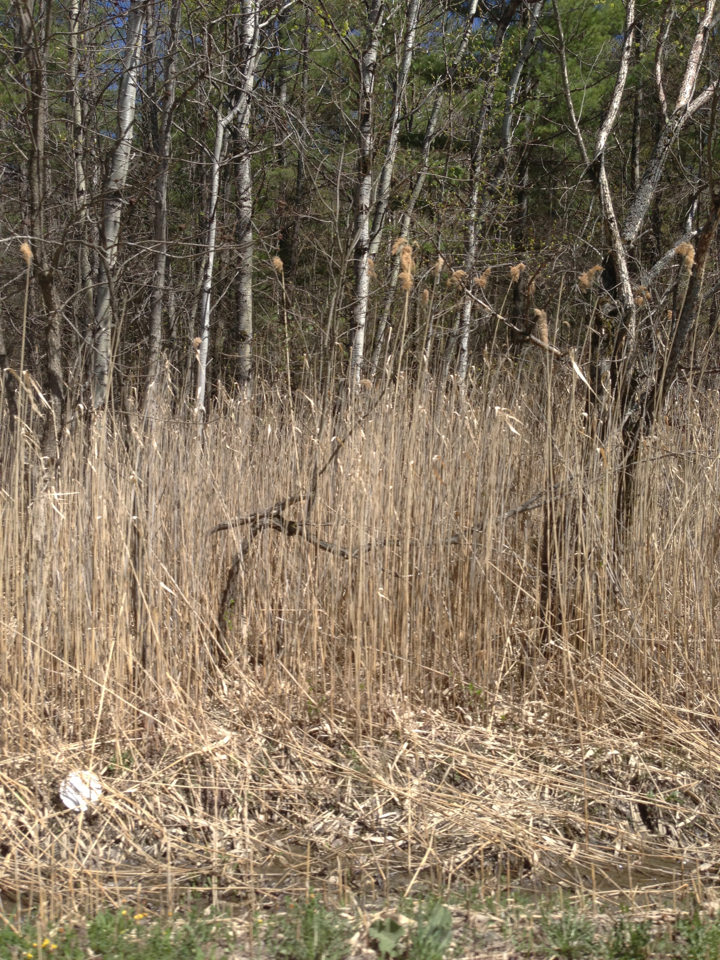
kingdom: Plantae
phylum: Tracheophyta
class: Liliopsida
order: Poales
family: Poaceae
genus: Phragmites
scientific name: Phragmites australis
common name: Common reed
